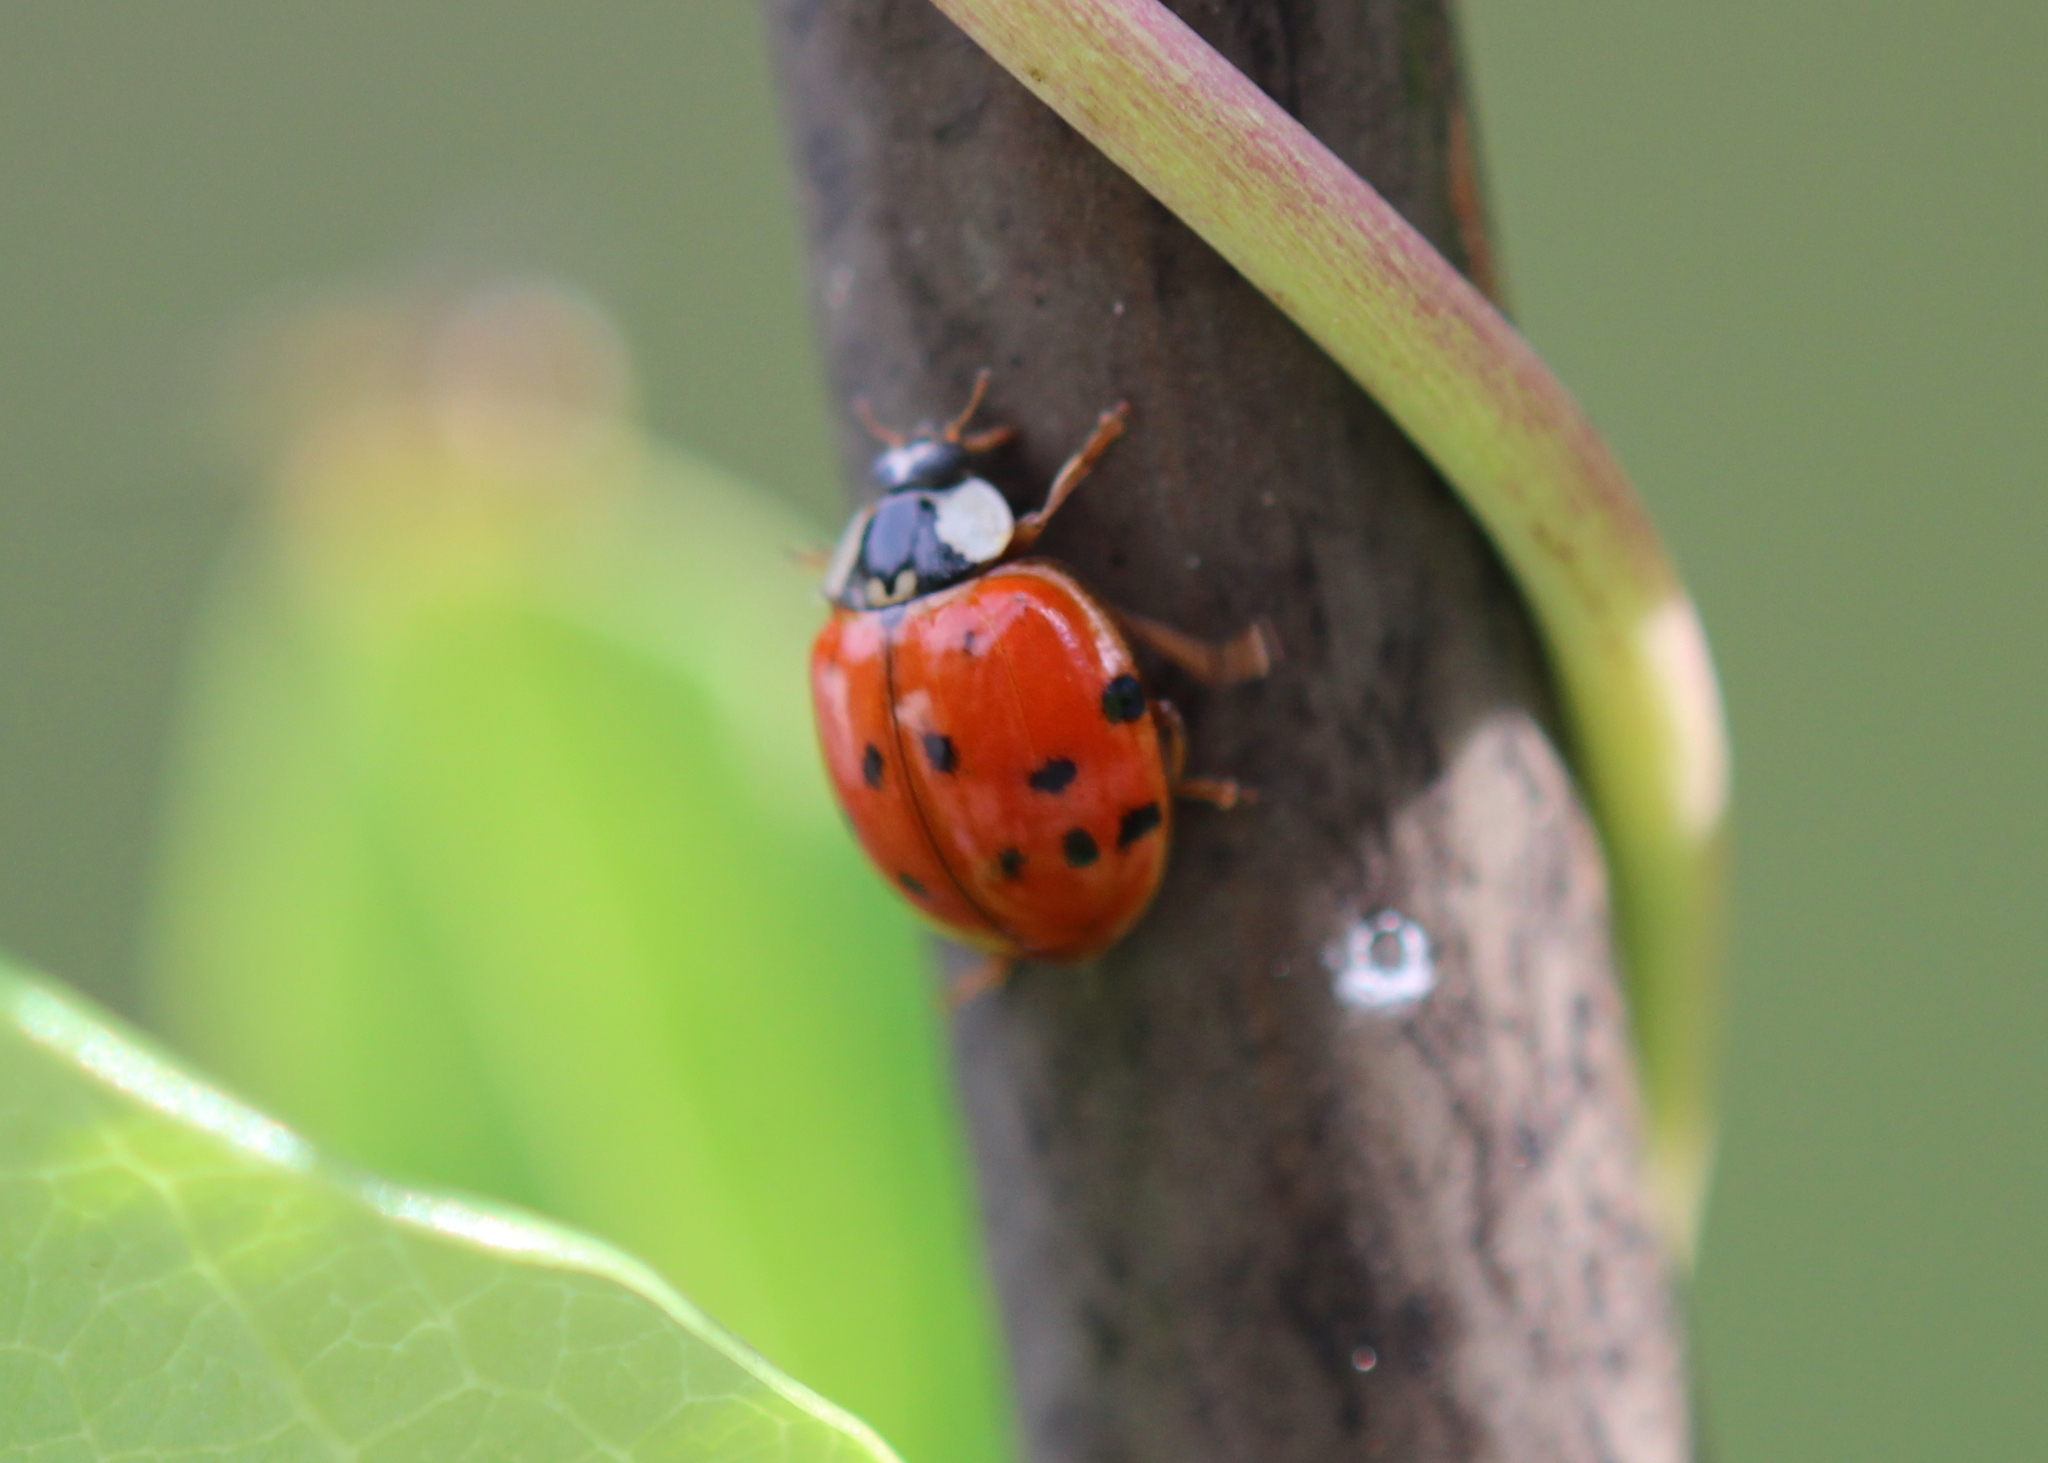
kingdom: Animalia
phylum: Arthropoda
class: Insecta
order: Coleoptera
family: Coccinellidae
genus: Harmonia
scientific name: Harmonia axyridis
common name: Harlequin ladybird
